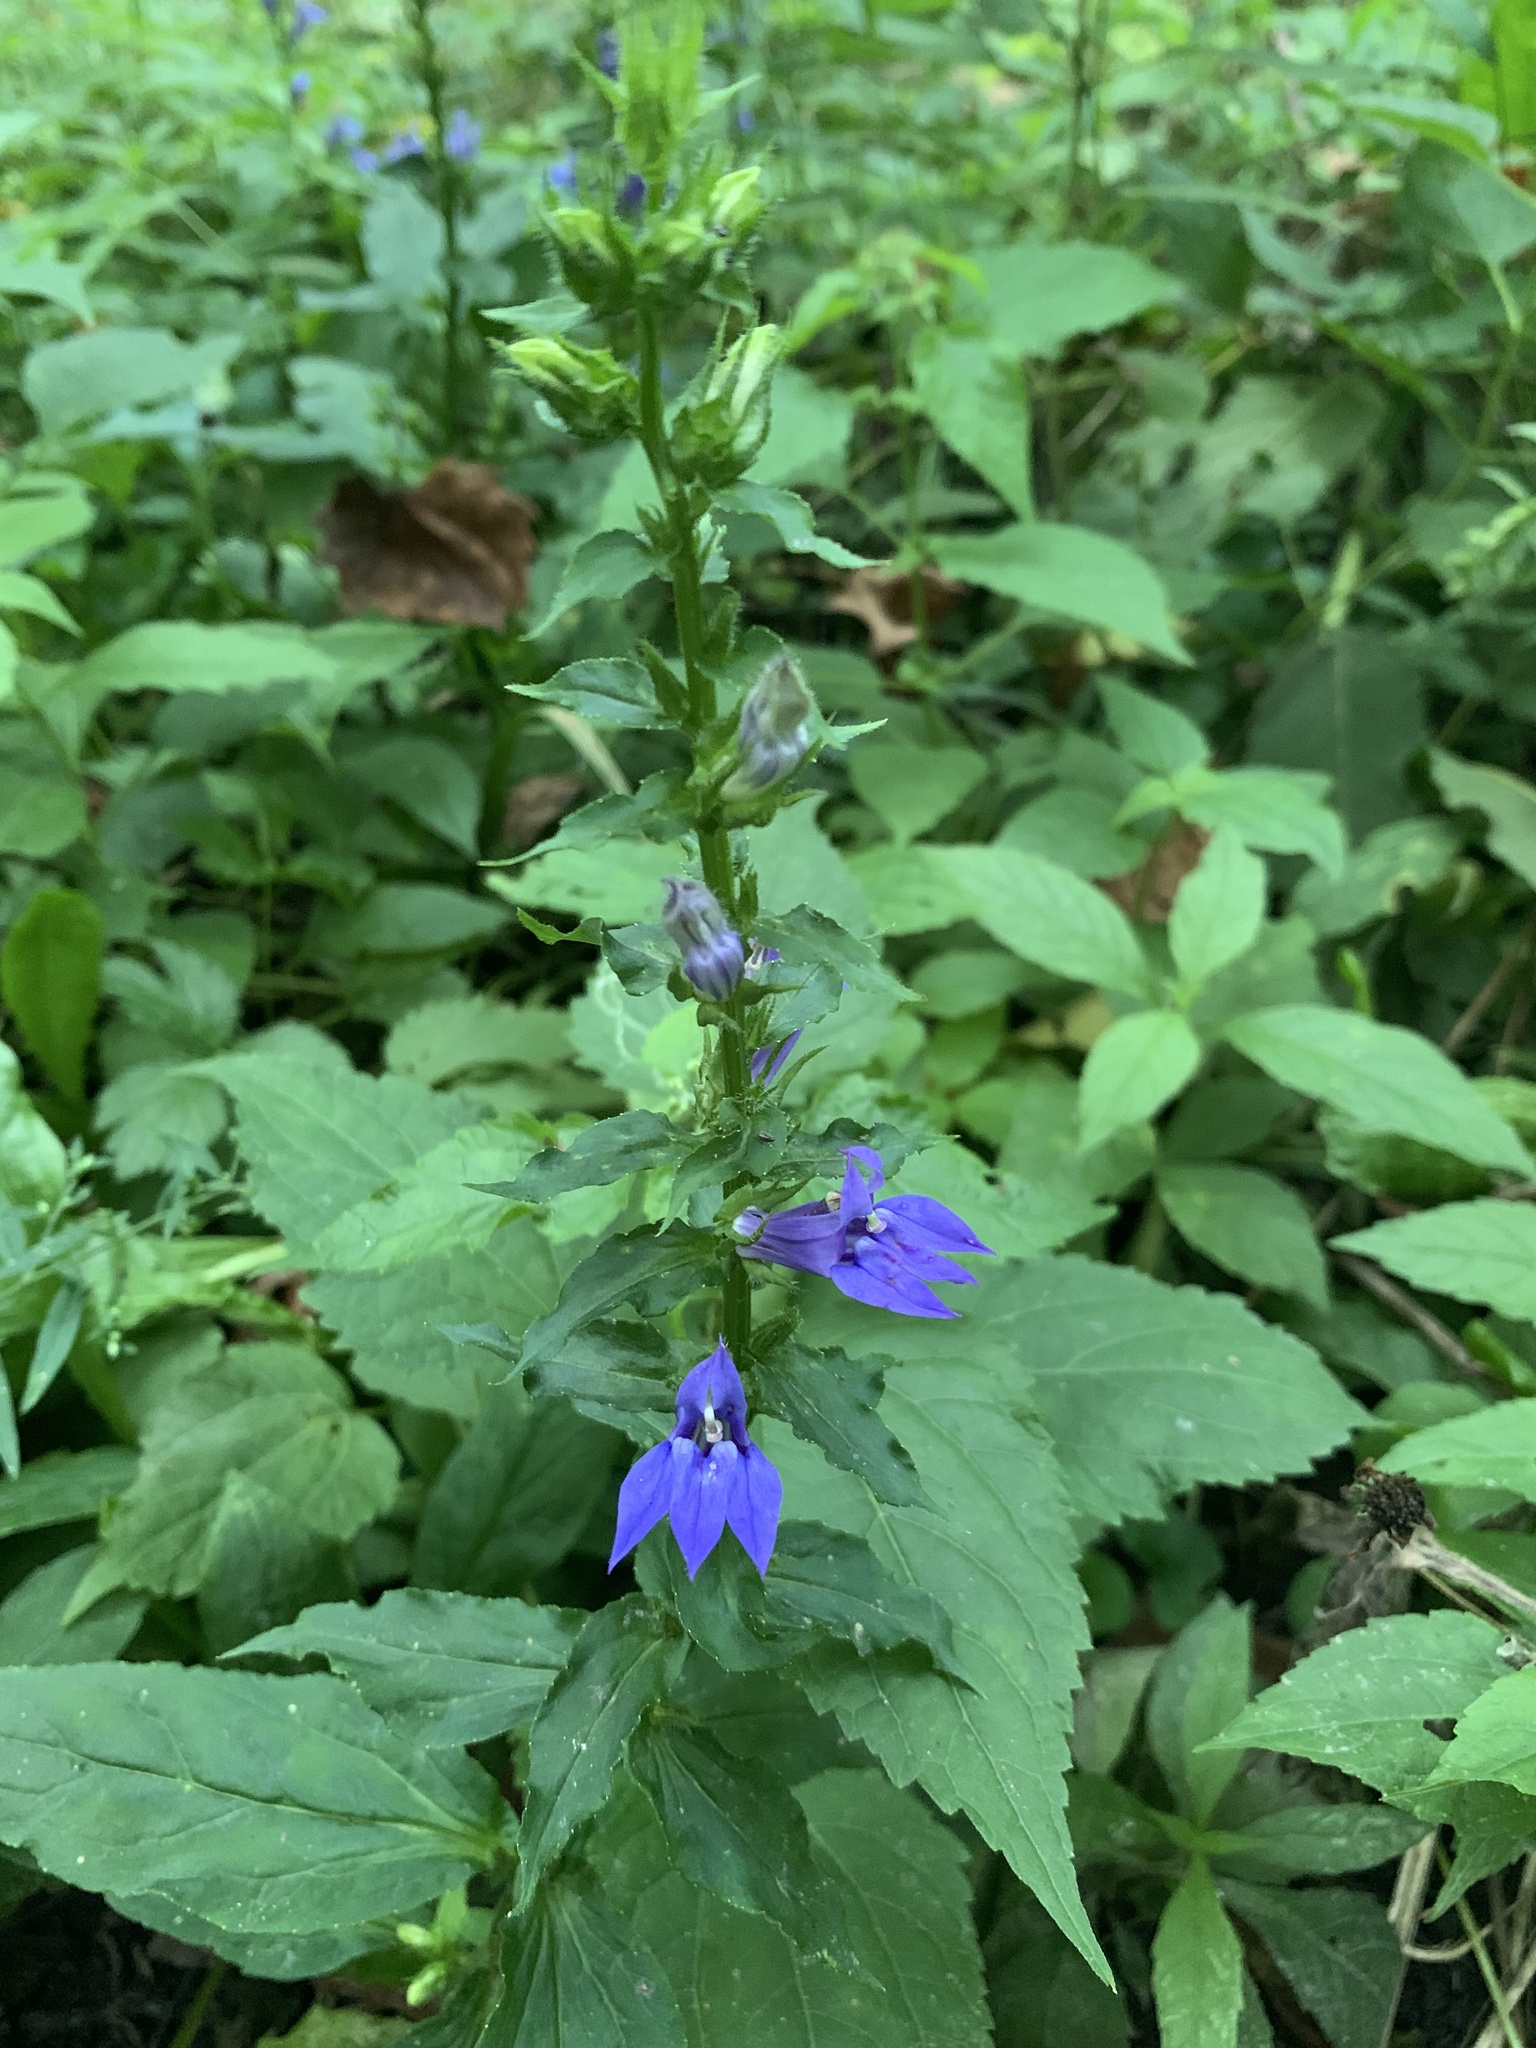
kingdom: Plantae
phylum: Tracheophyta
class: Magnoliopsida
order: Asterales
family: Campanulaceae
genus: Lobelia
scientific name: Lobelia siphilitica
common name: Great lobelia
